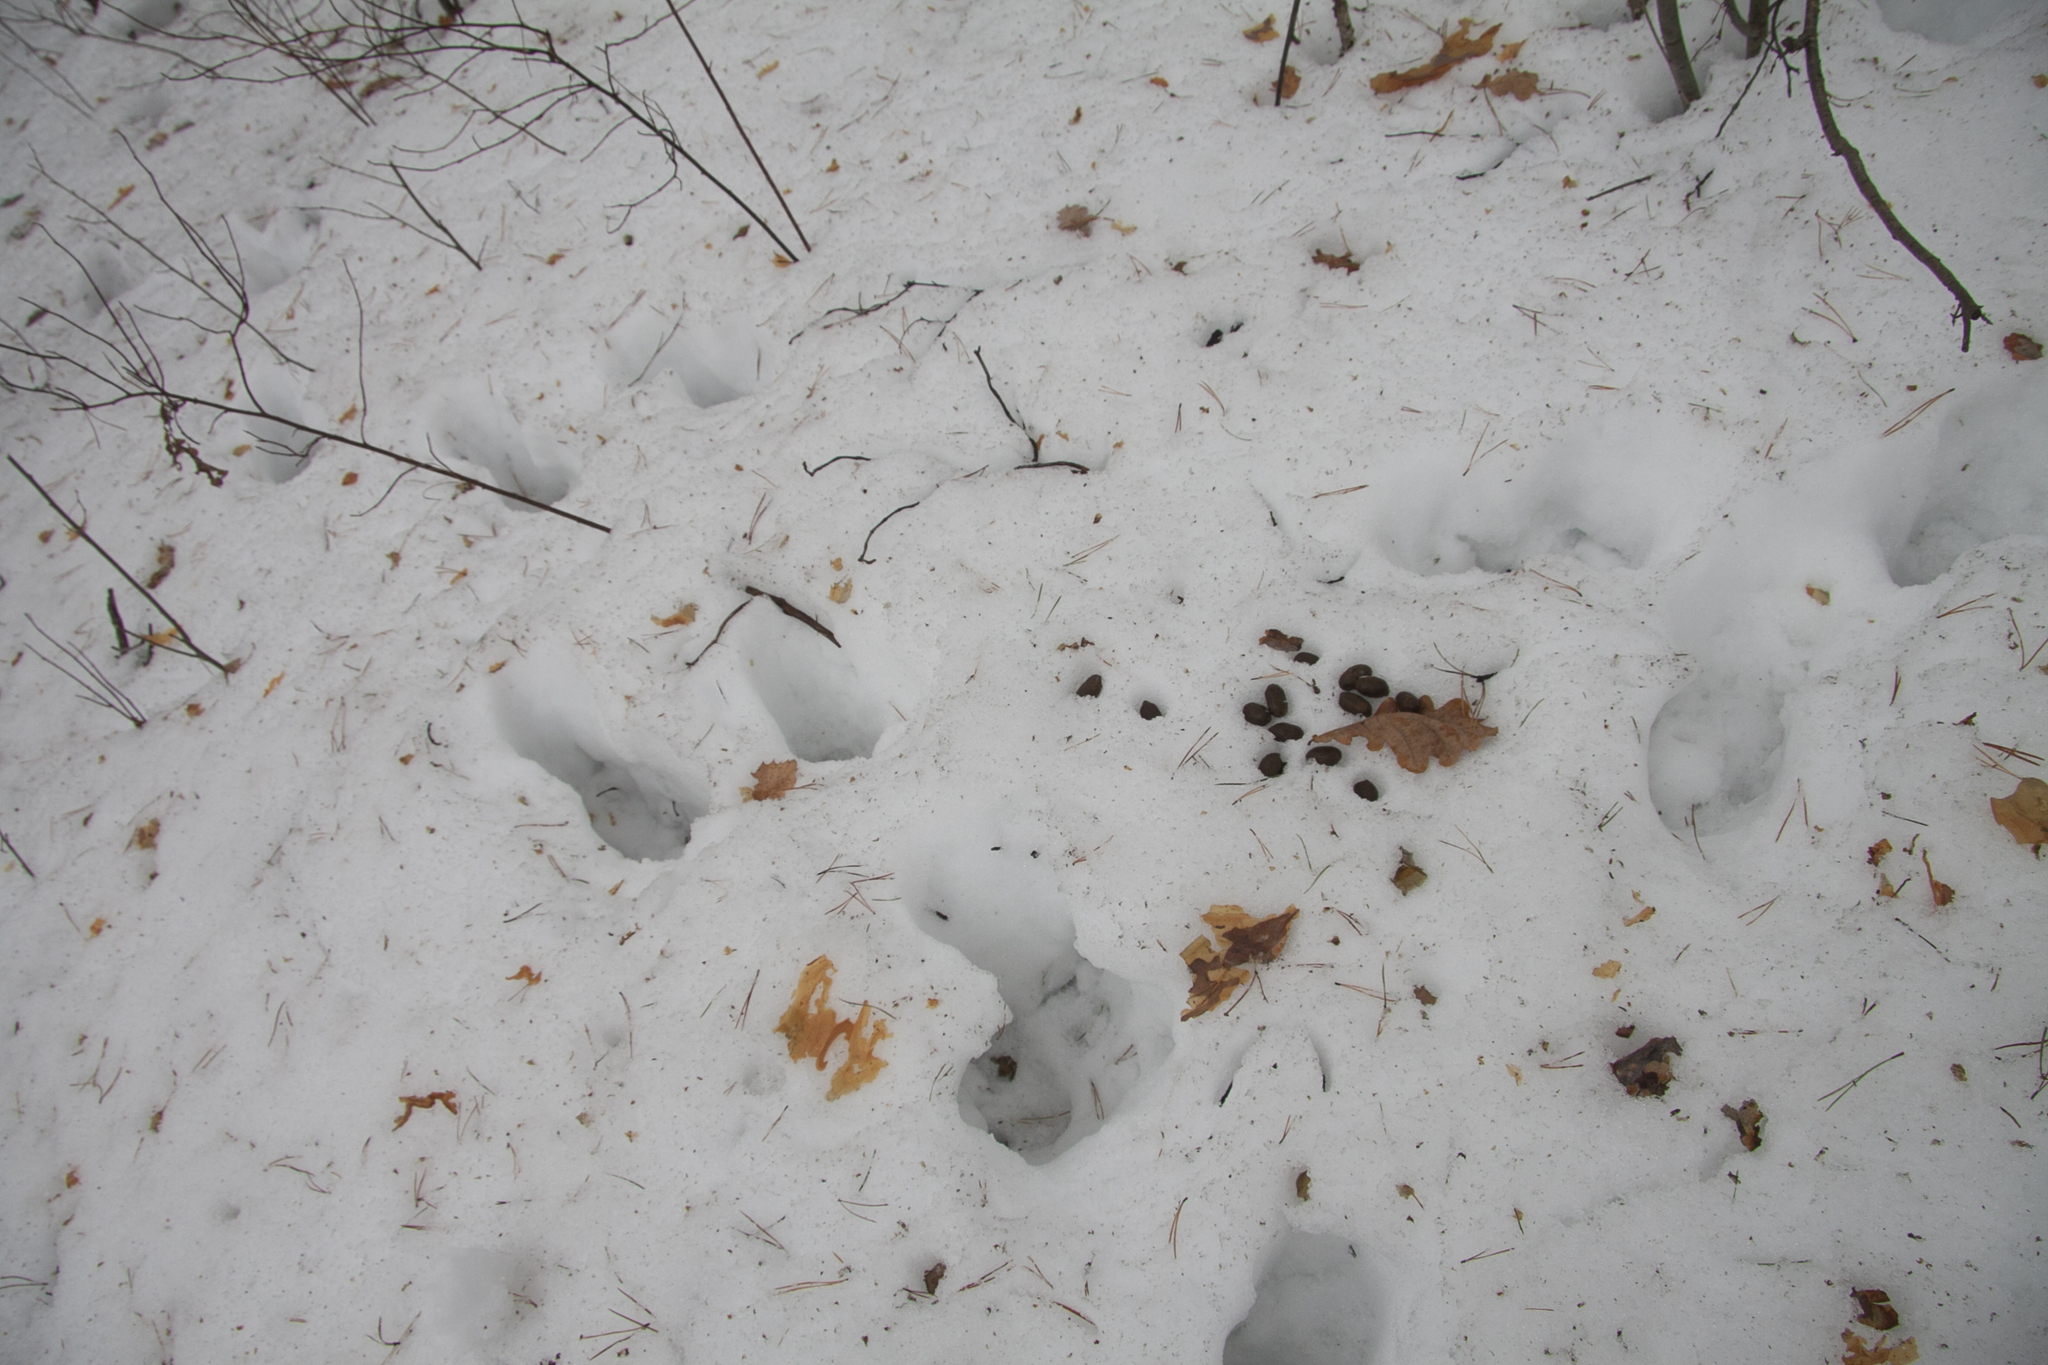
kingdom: Animalia
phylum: Chordata
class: Mammalia
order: Artiodactyla
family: Cervidae
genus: Alces
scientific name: Alces alces
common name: Moose
